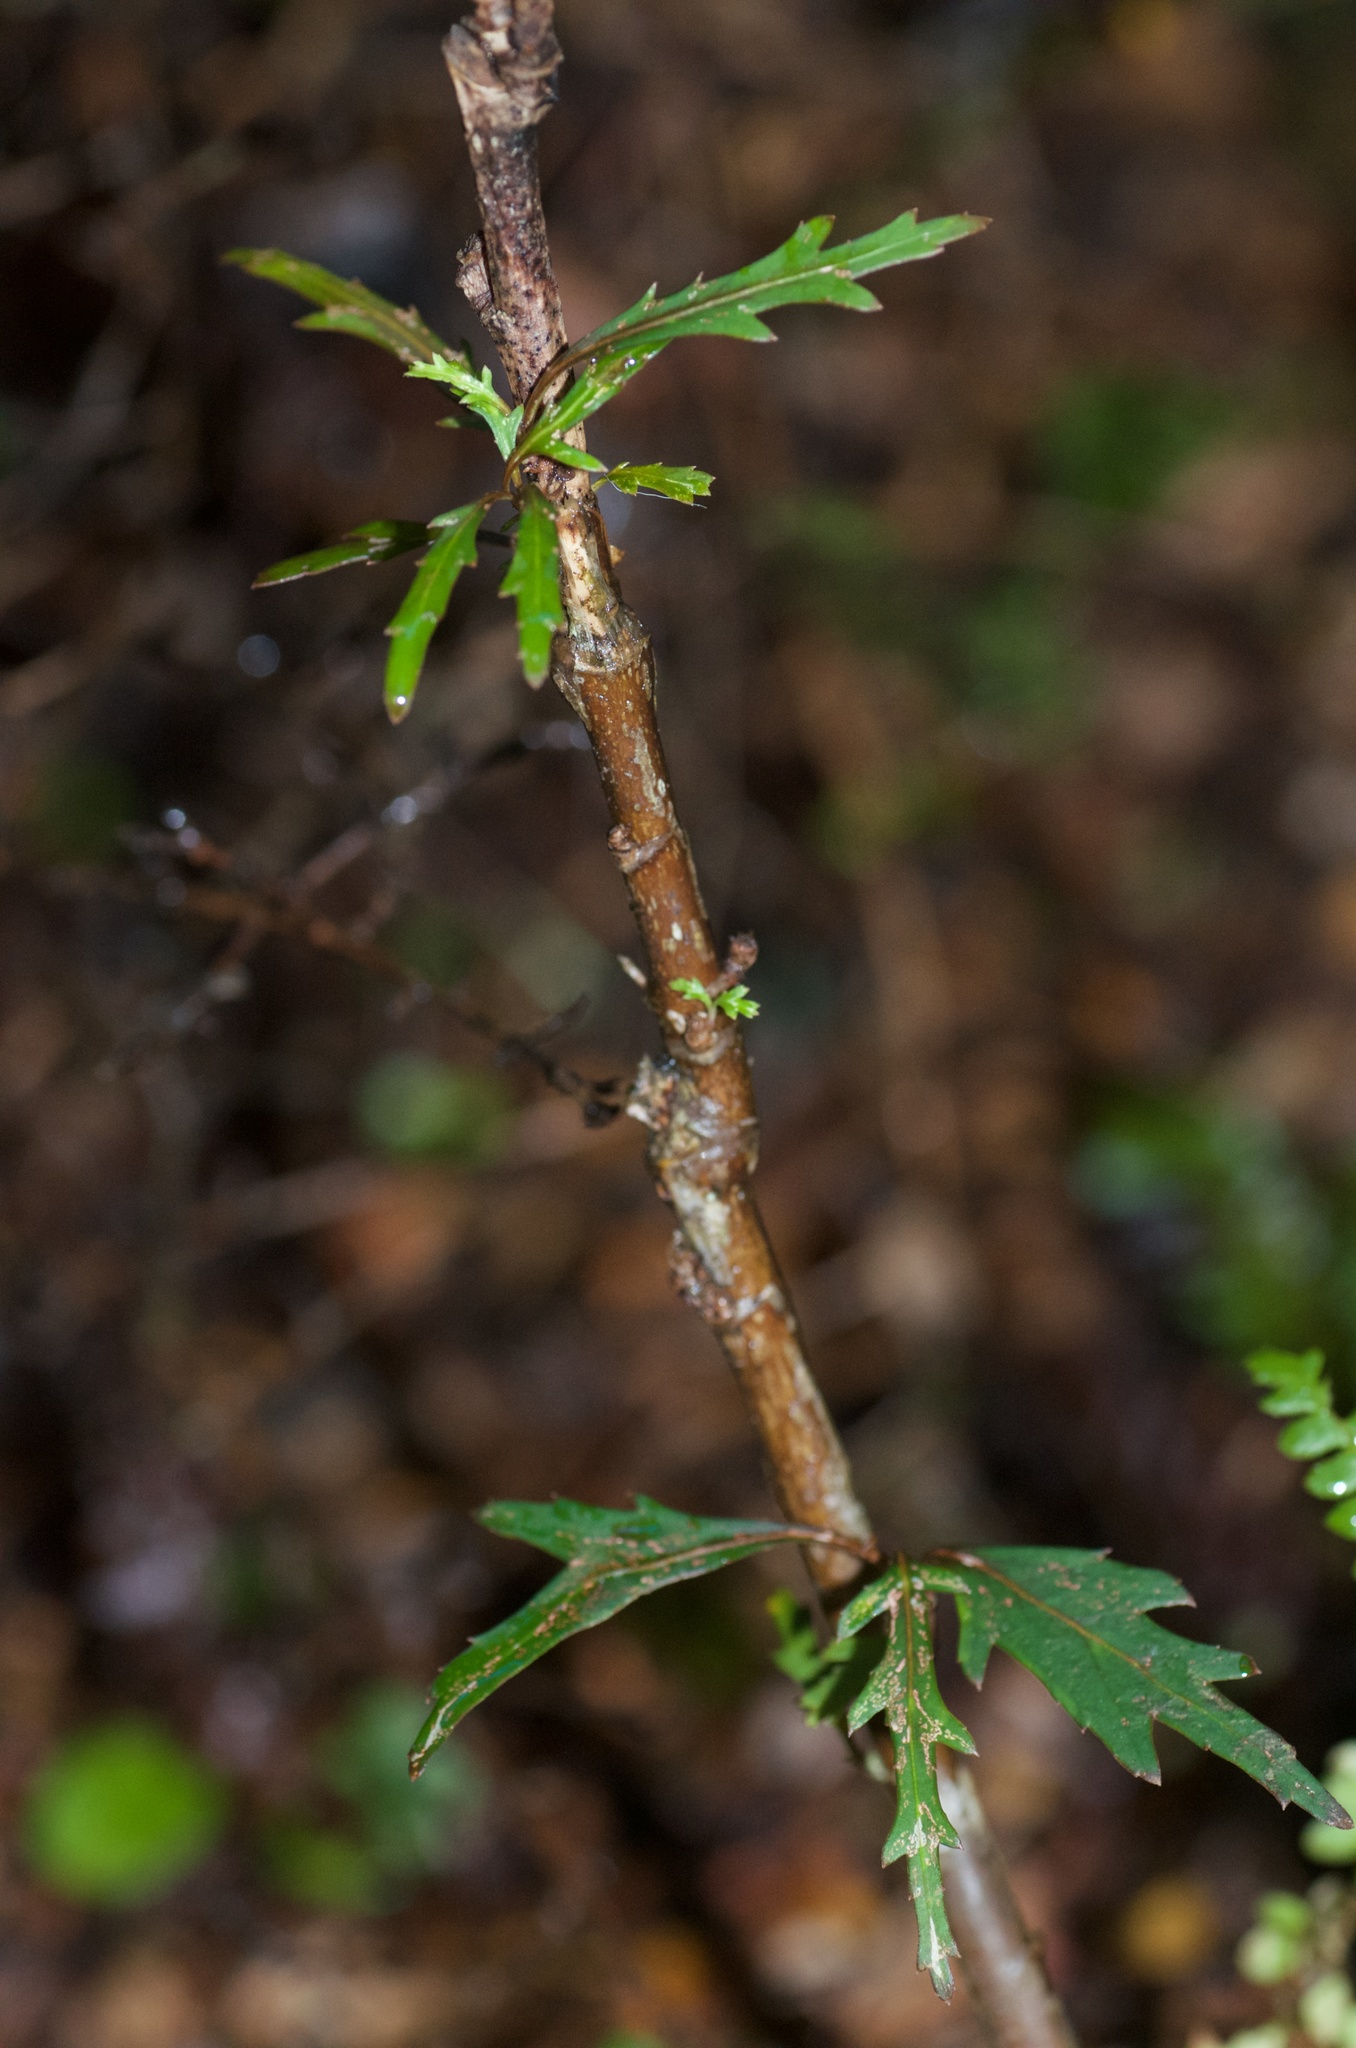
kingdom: Plantae
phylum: Tracheophyta
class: Magnoliopsida
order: Oxalidales
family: Elaeocarpaceae
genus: Aristotelia
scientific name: Aristotelia fruticosa
